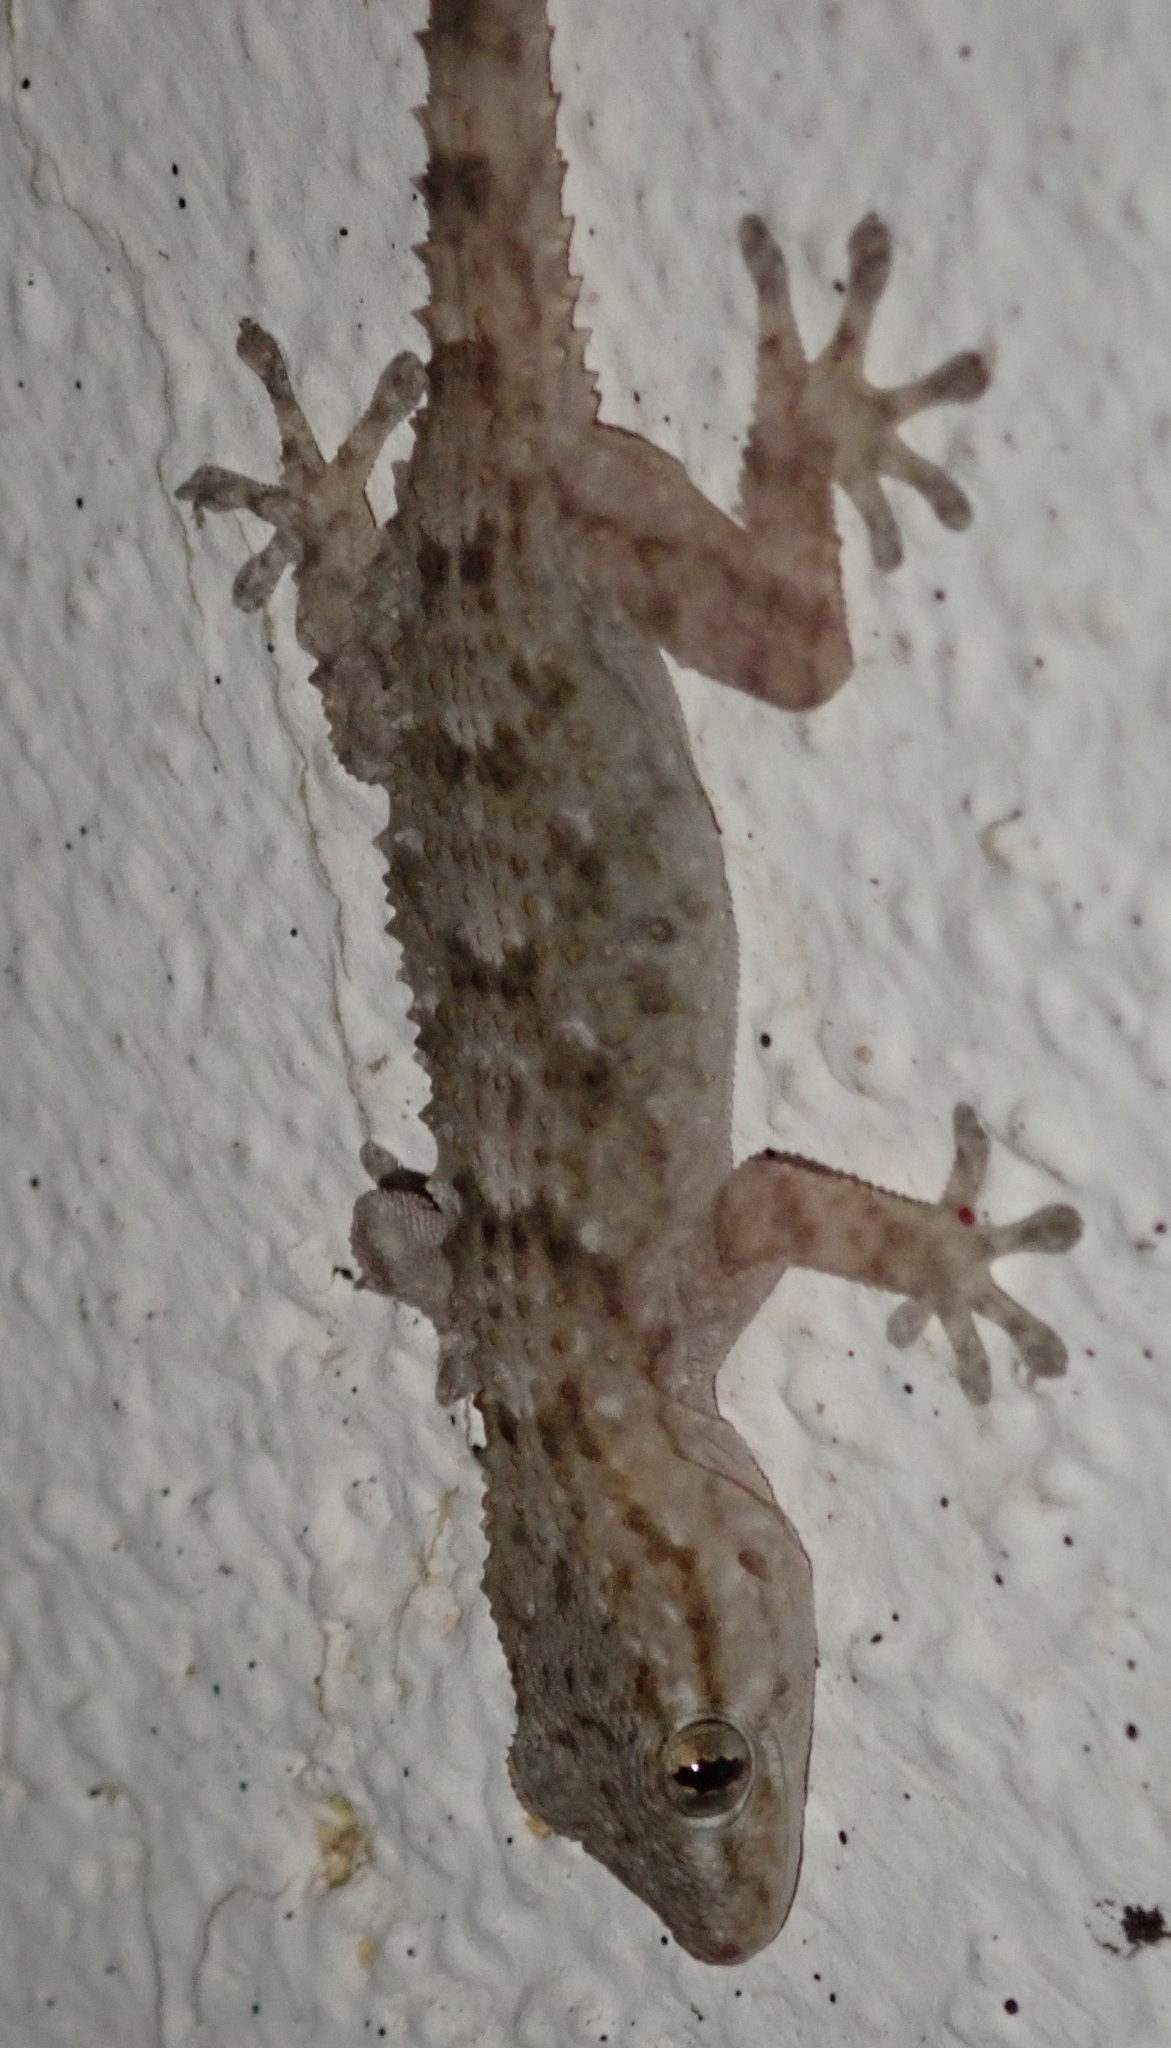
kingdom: Animalia
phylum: Chordata
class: Squamata
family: Phyllodactylidae
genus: Tarentola
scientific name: Tarentola mauritanica
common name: Moorish gecko
